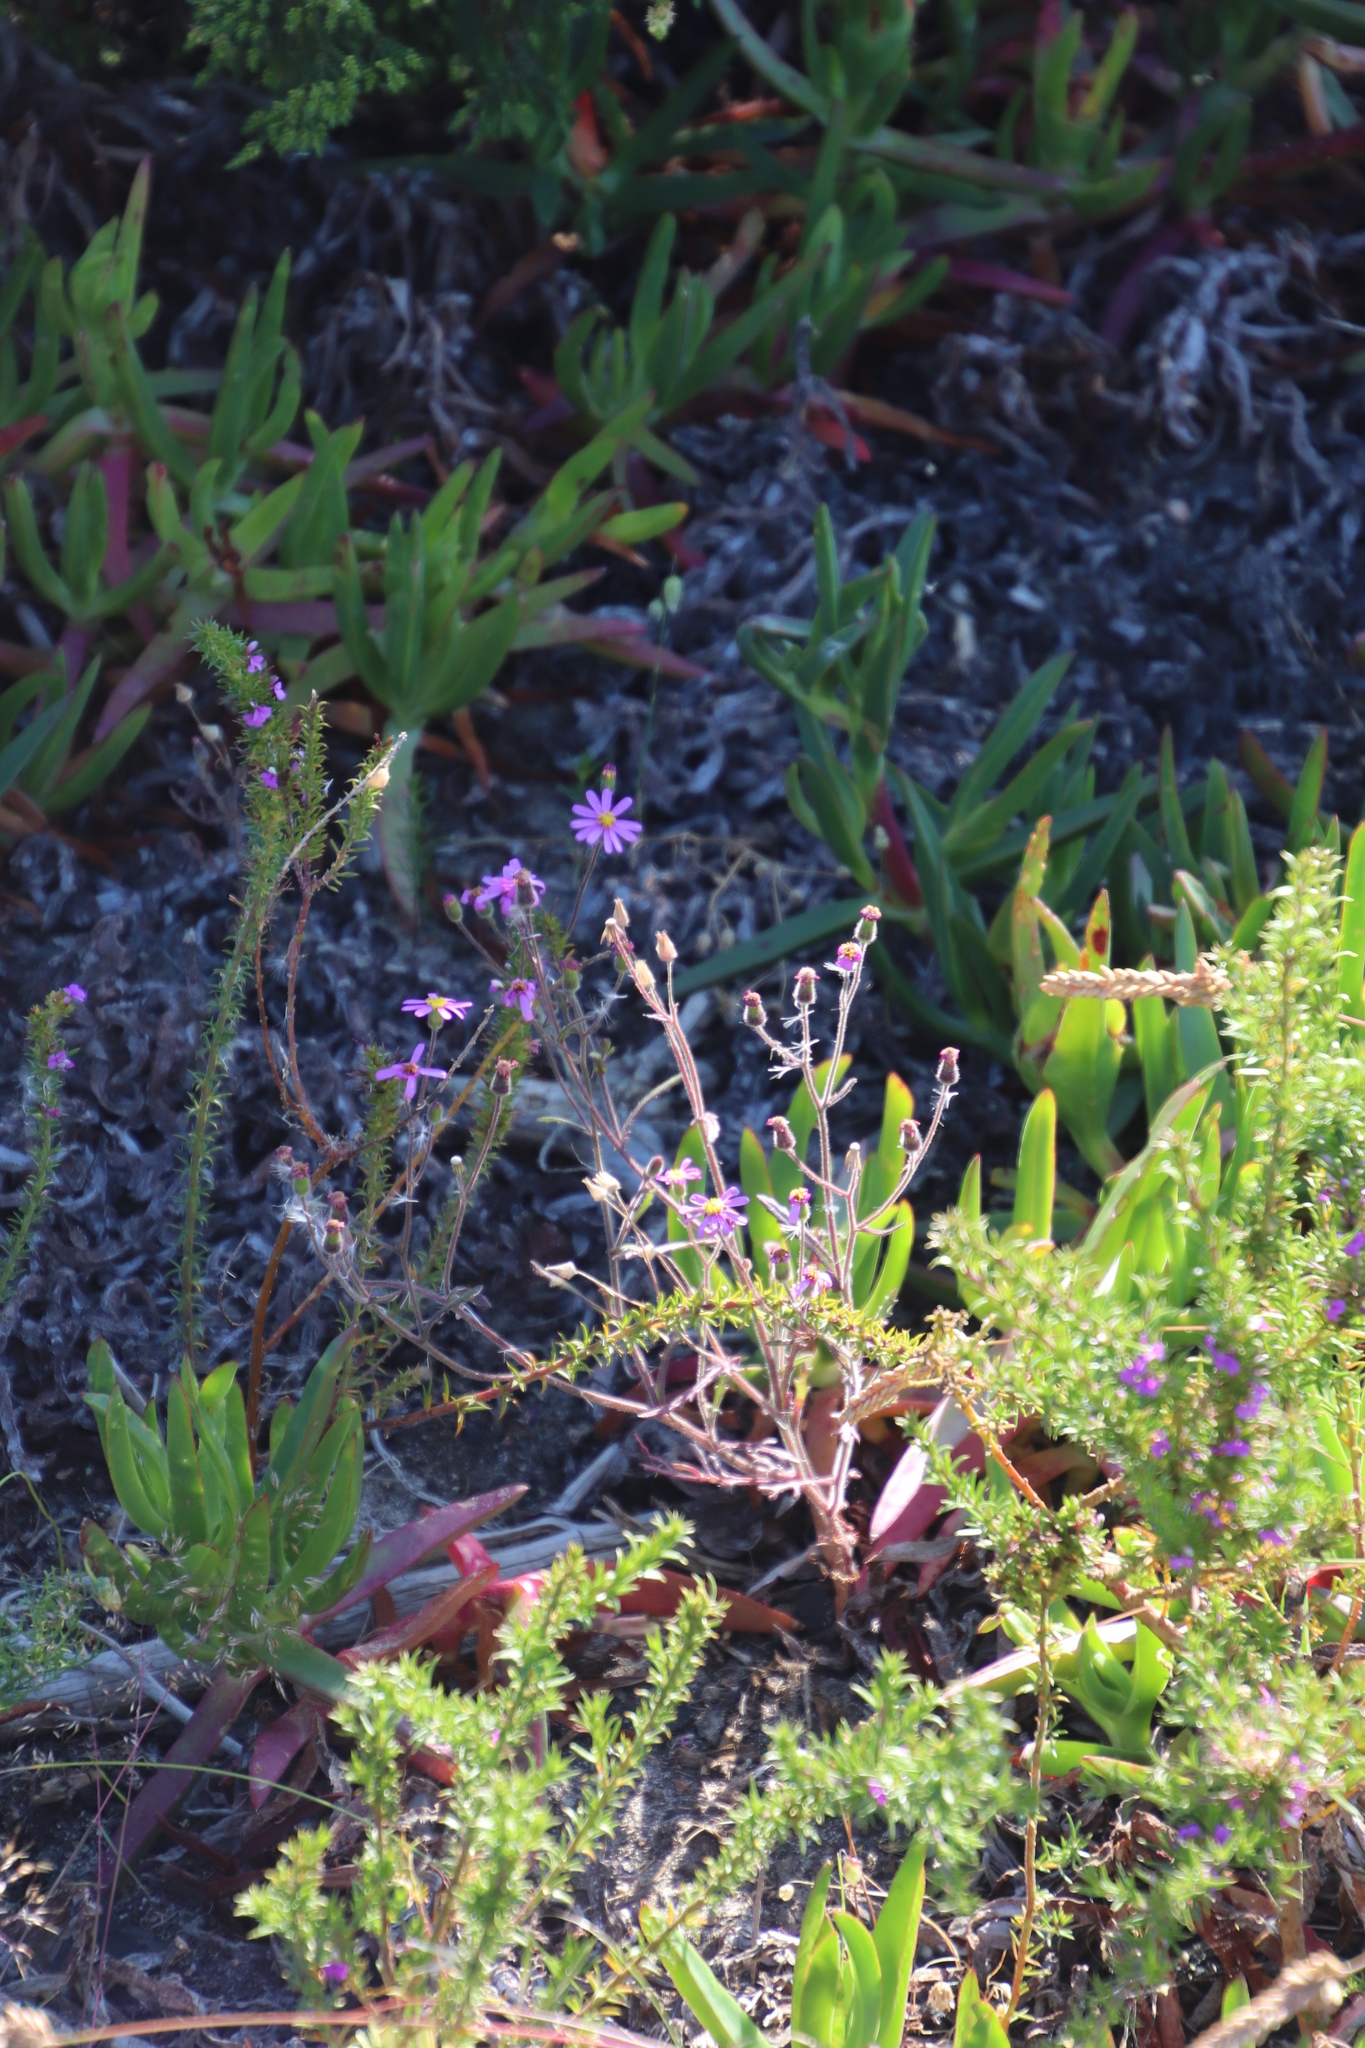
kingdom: Plantae
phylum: Tracheophyta
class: Magnoliopsida
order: Asterales
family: Asteraceae
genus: Senecio
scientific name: Senecio arenarius
